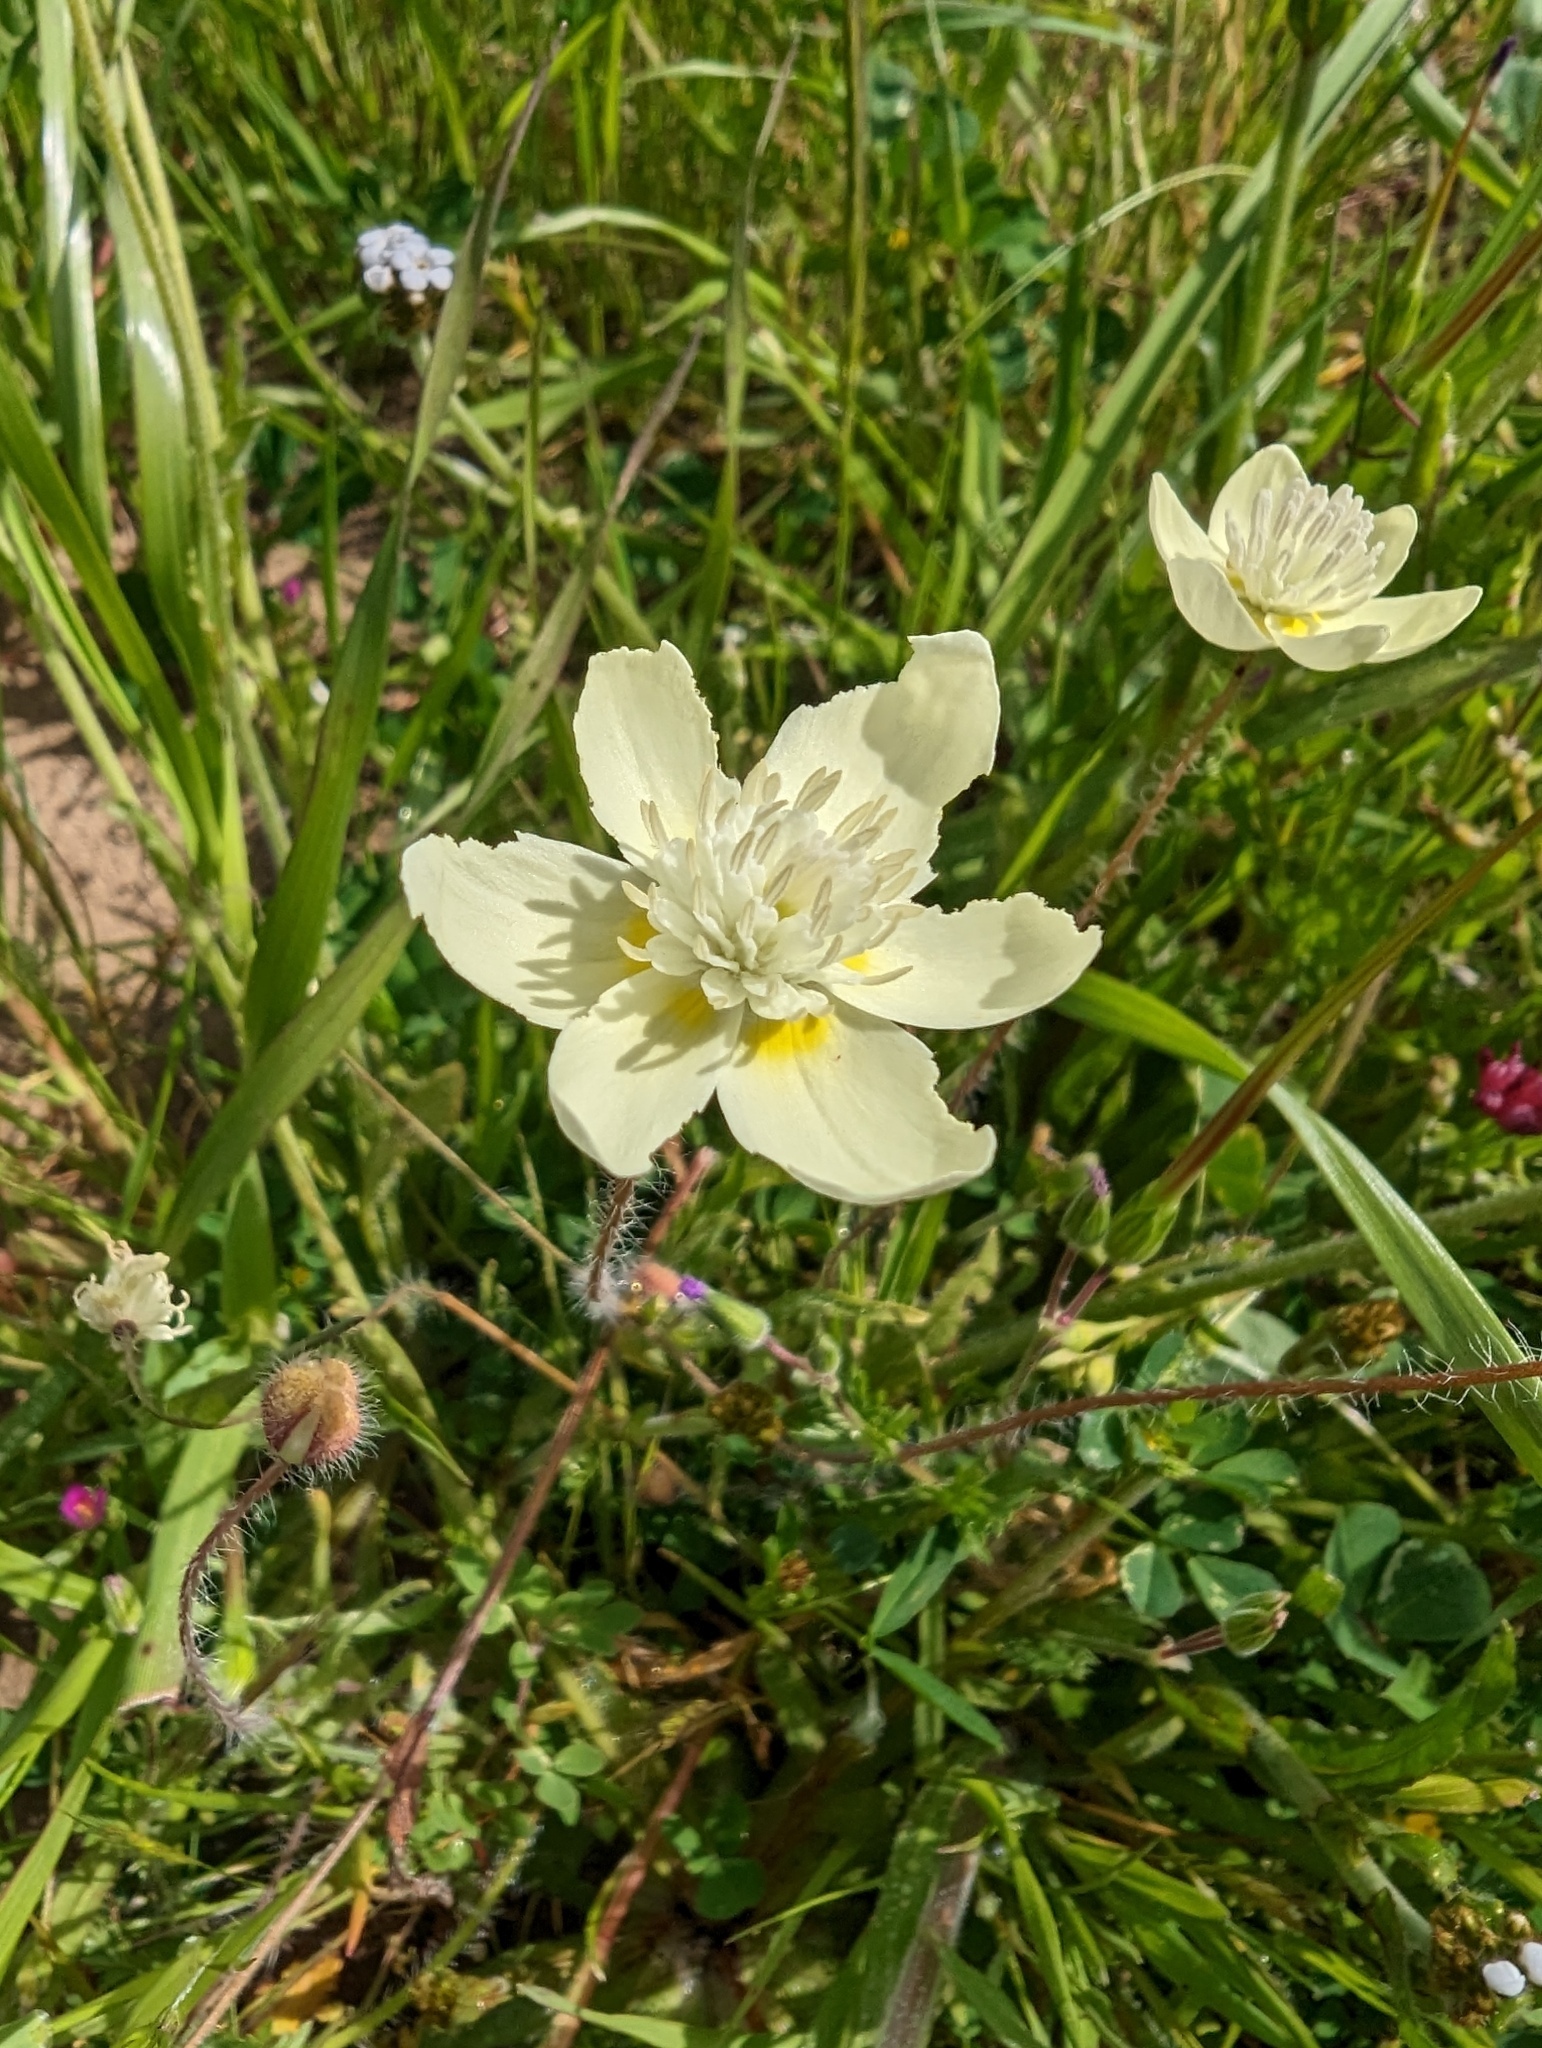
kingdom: Plantae
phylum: Tracheophyta
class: Magnoliopsida
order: Ranunculales
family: Papaveraceae
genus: Platystemon
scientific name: Platystemon californicus
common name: Cream-cups
